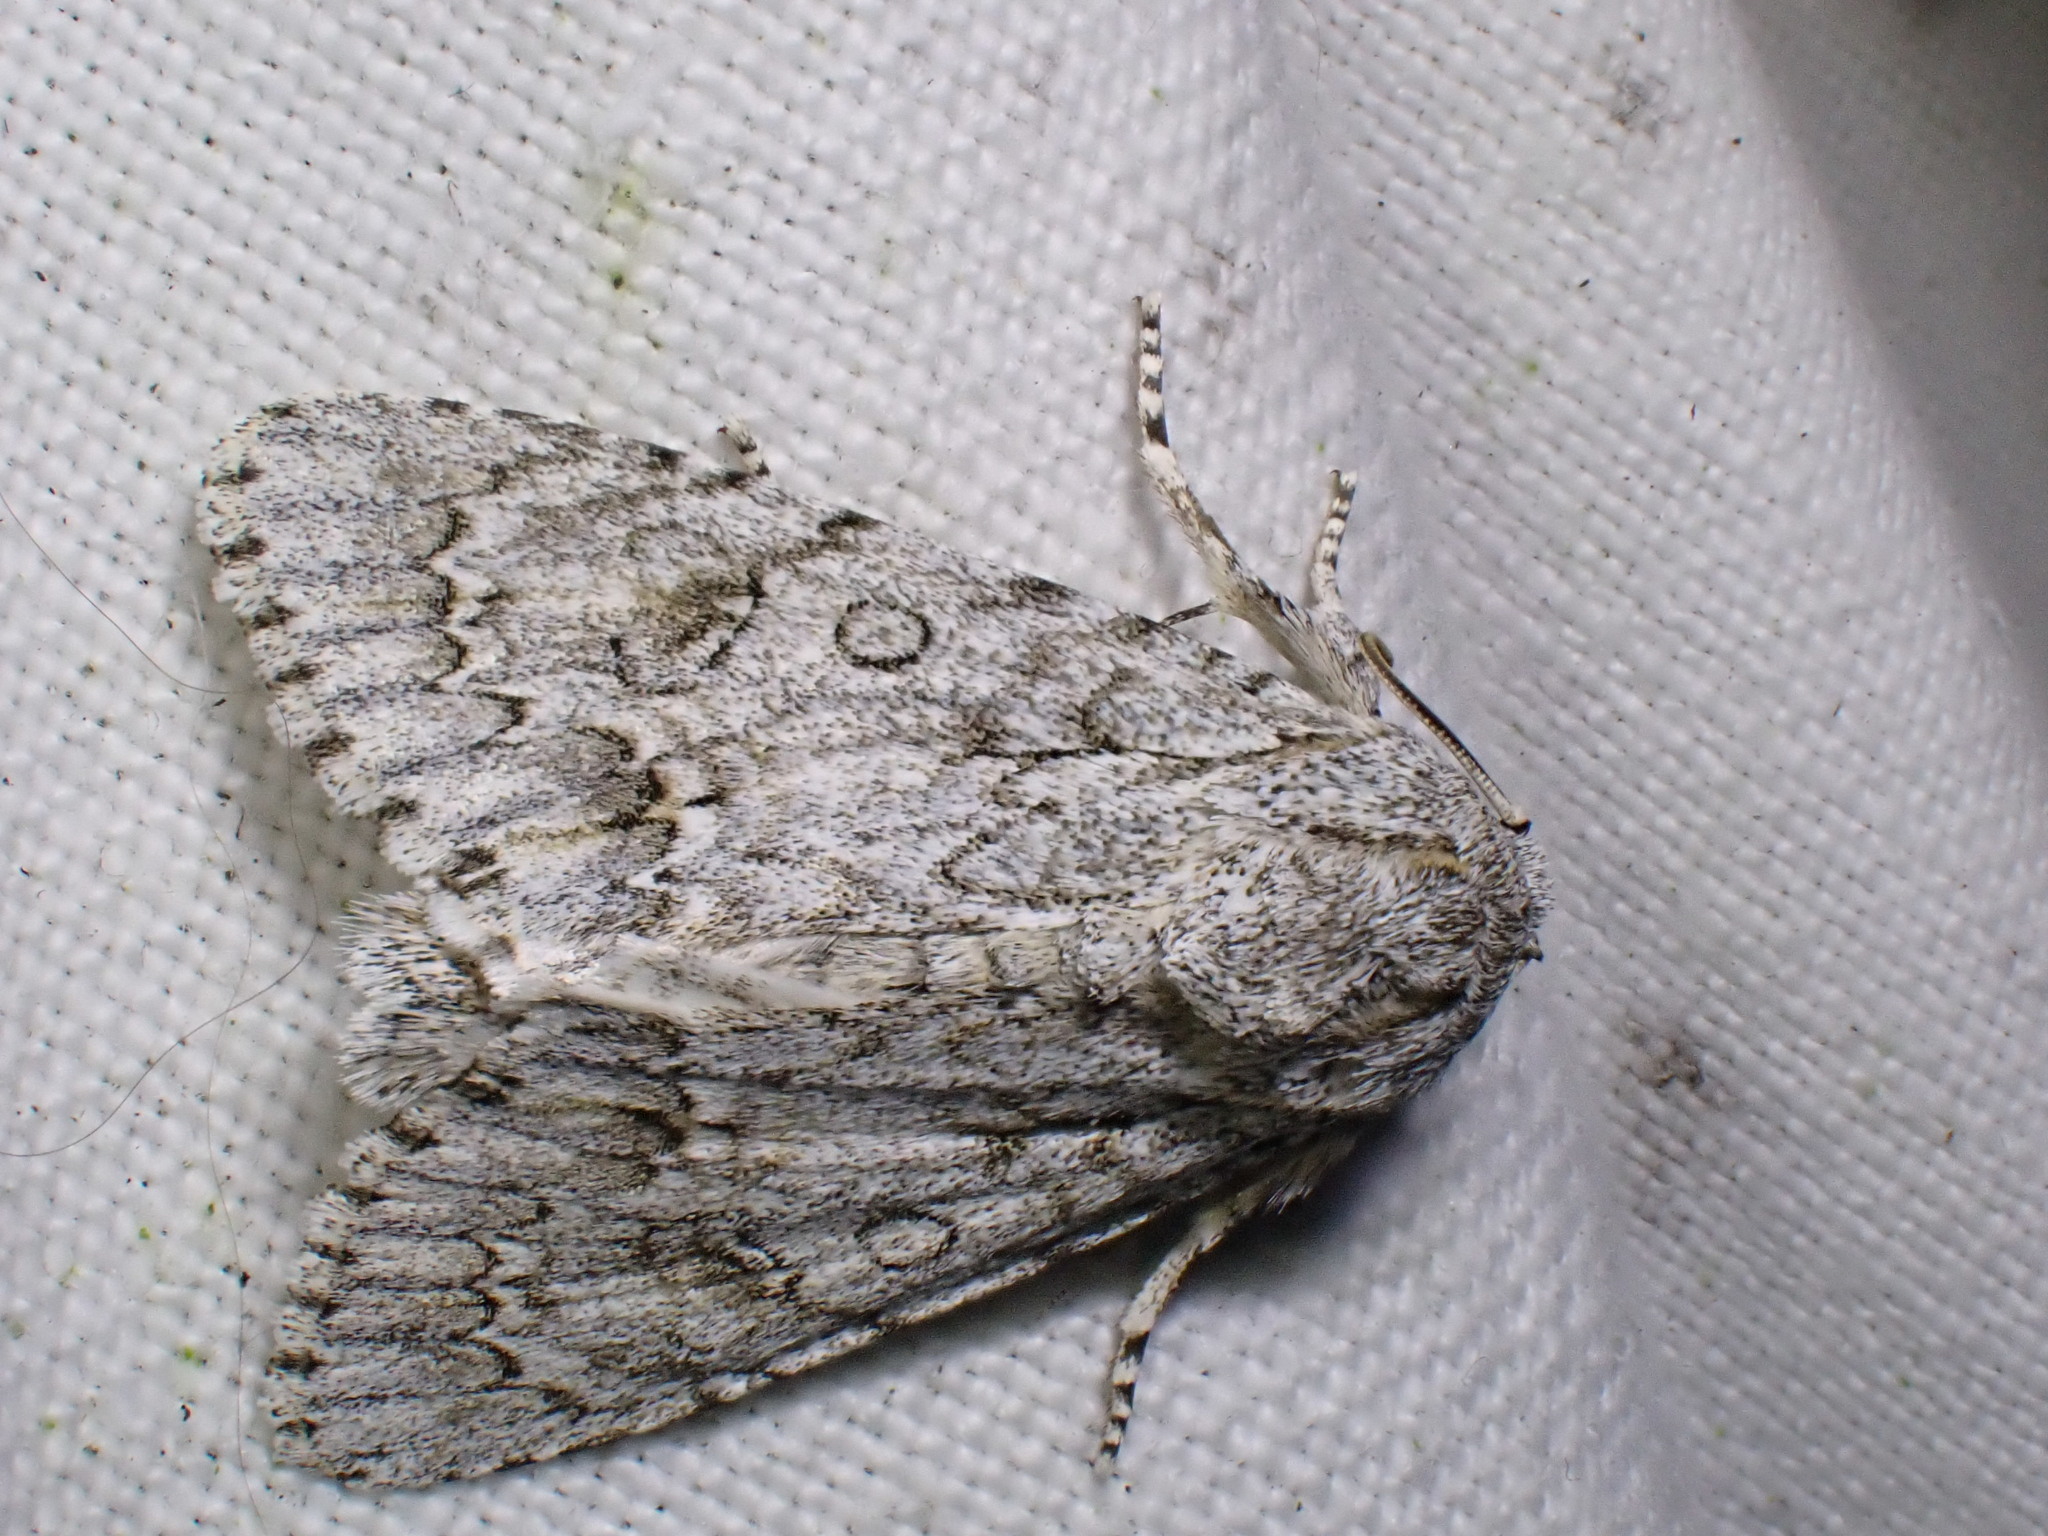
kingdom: Animalia
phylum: Arthropoda
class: Insecta
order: Lepidoptera
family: Noctuidae
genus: Acronicta
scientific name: Acronicta aceris
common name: Sycamore
